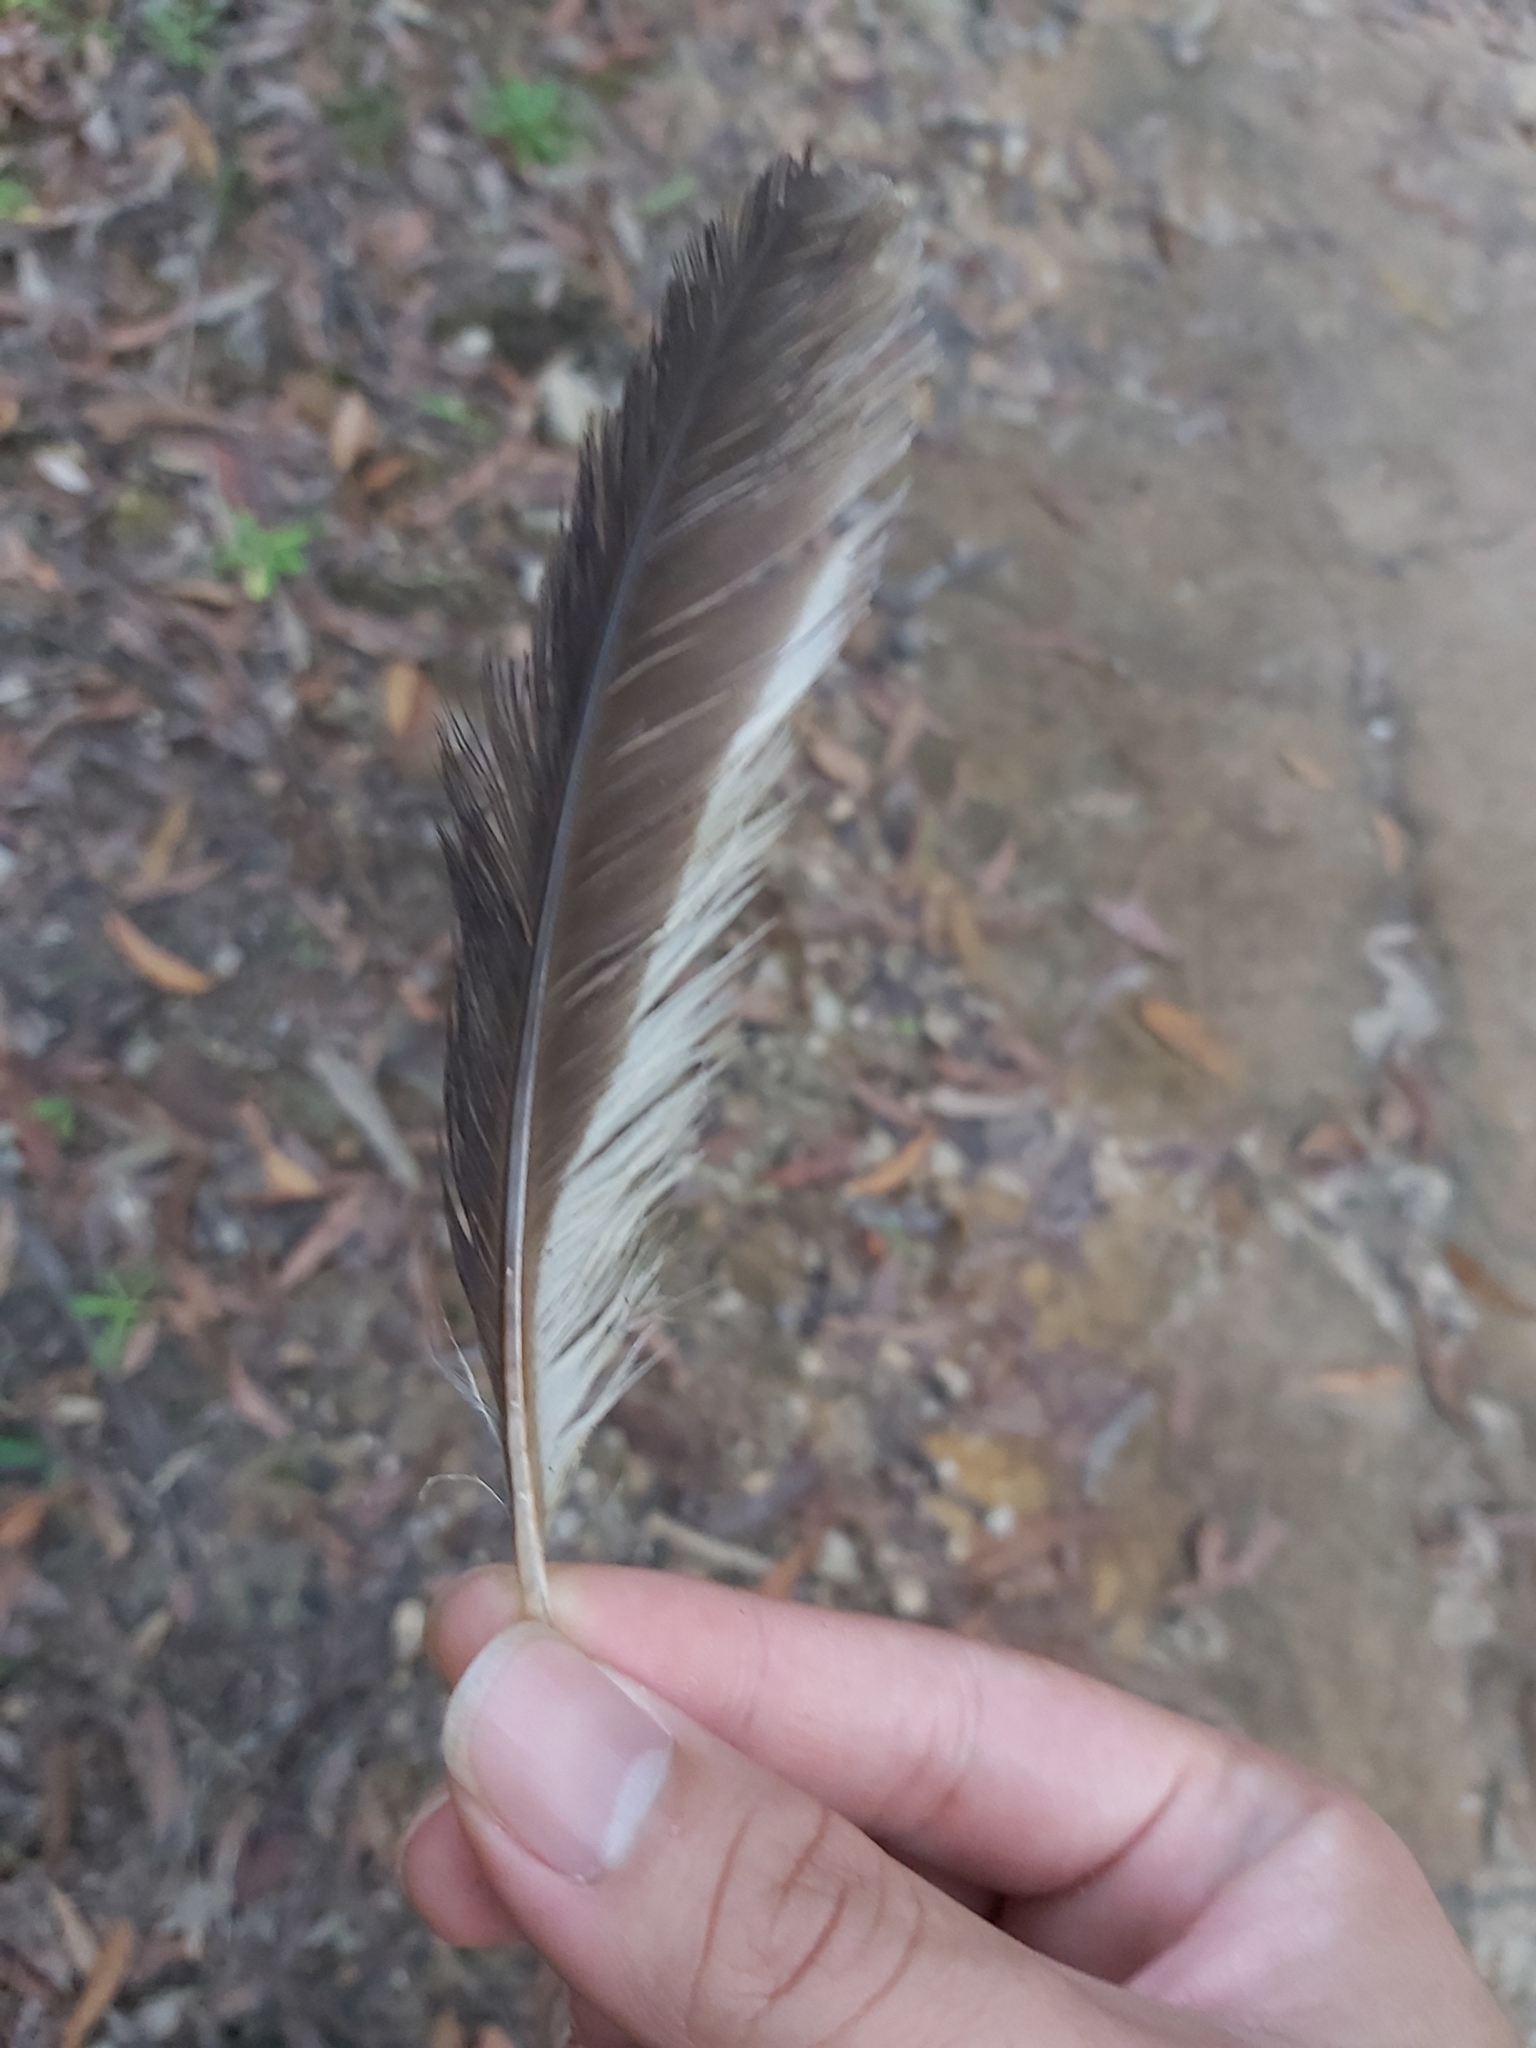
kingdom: Animalia
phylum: Chordata
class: Aves
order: Coraciiformes
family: Alcedinidae
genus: Dacelo
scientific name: Dacelo novaeguineae
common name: Laughing kookaburra
